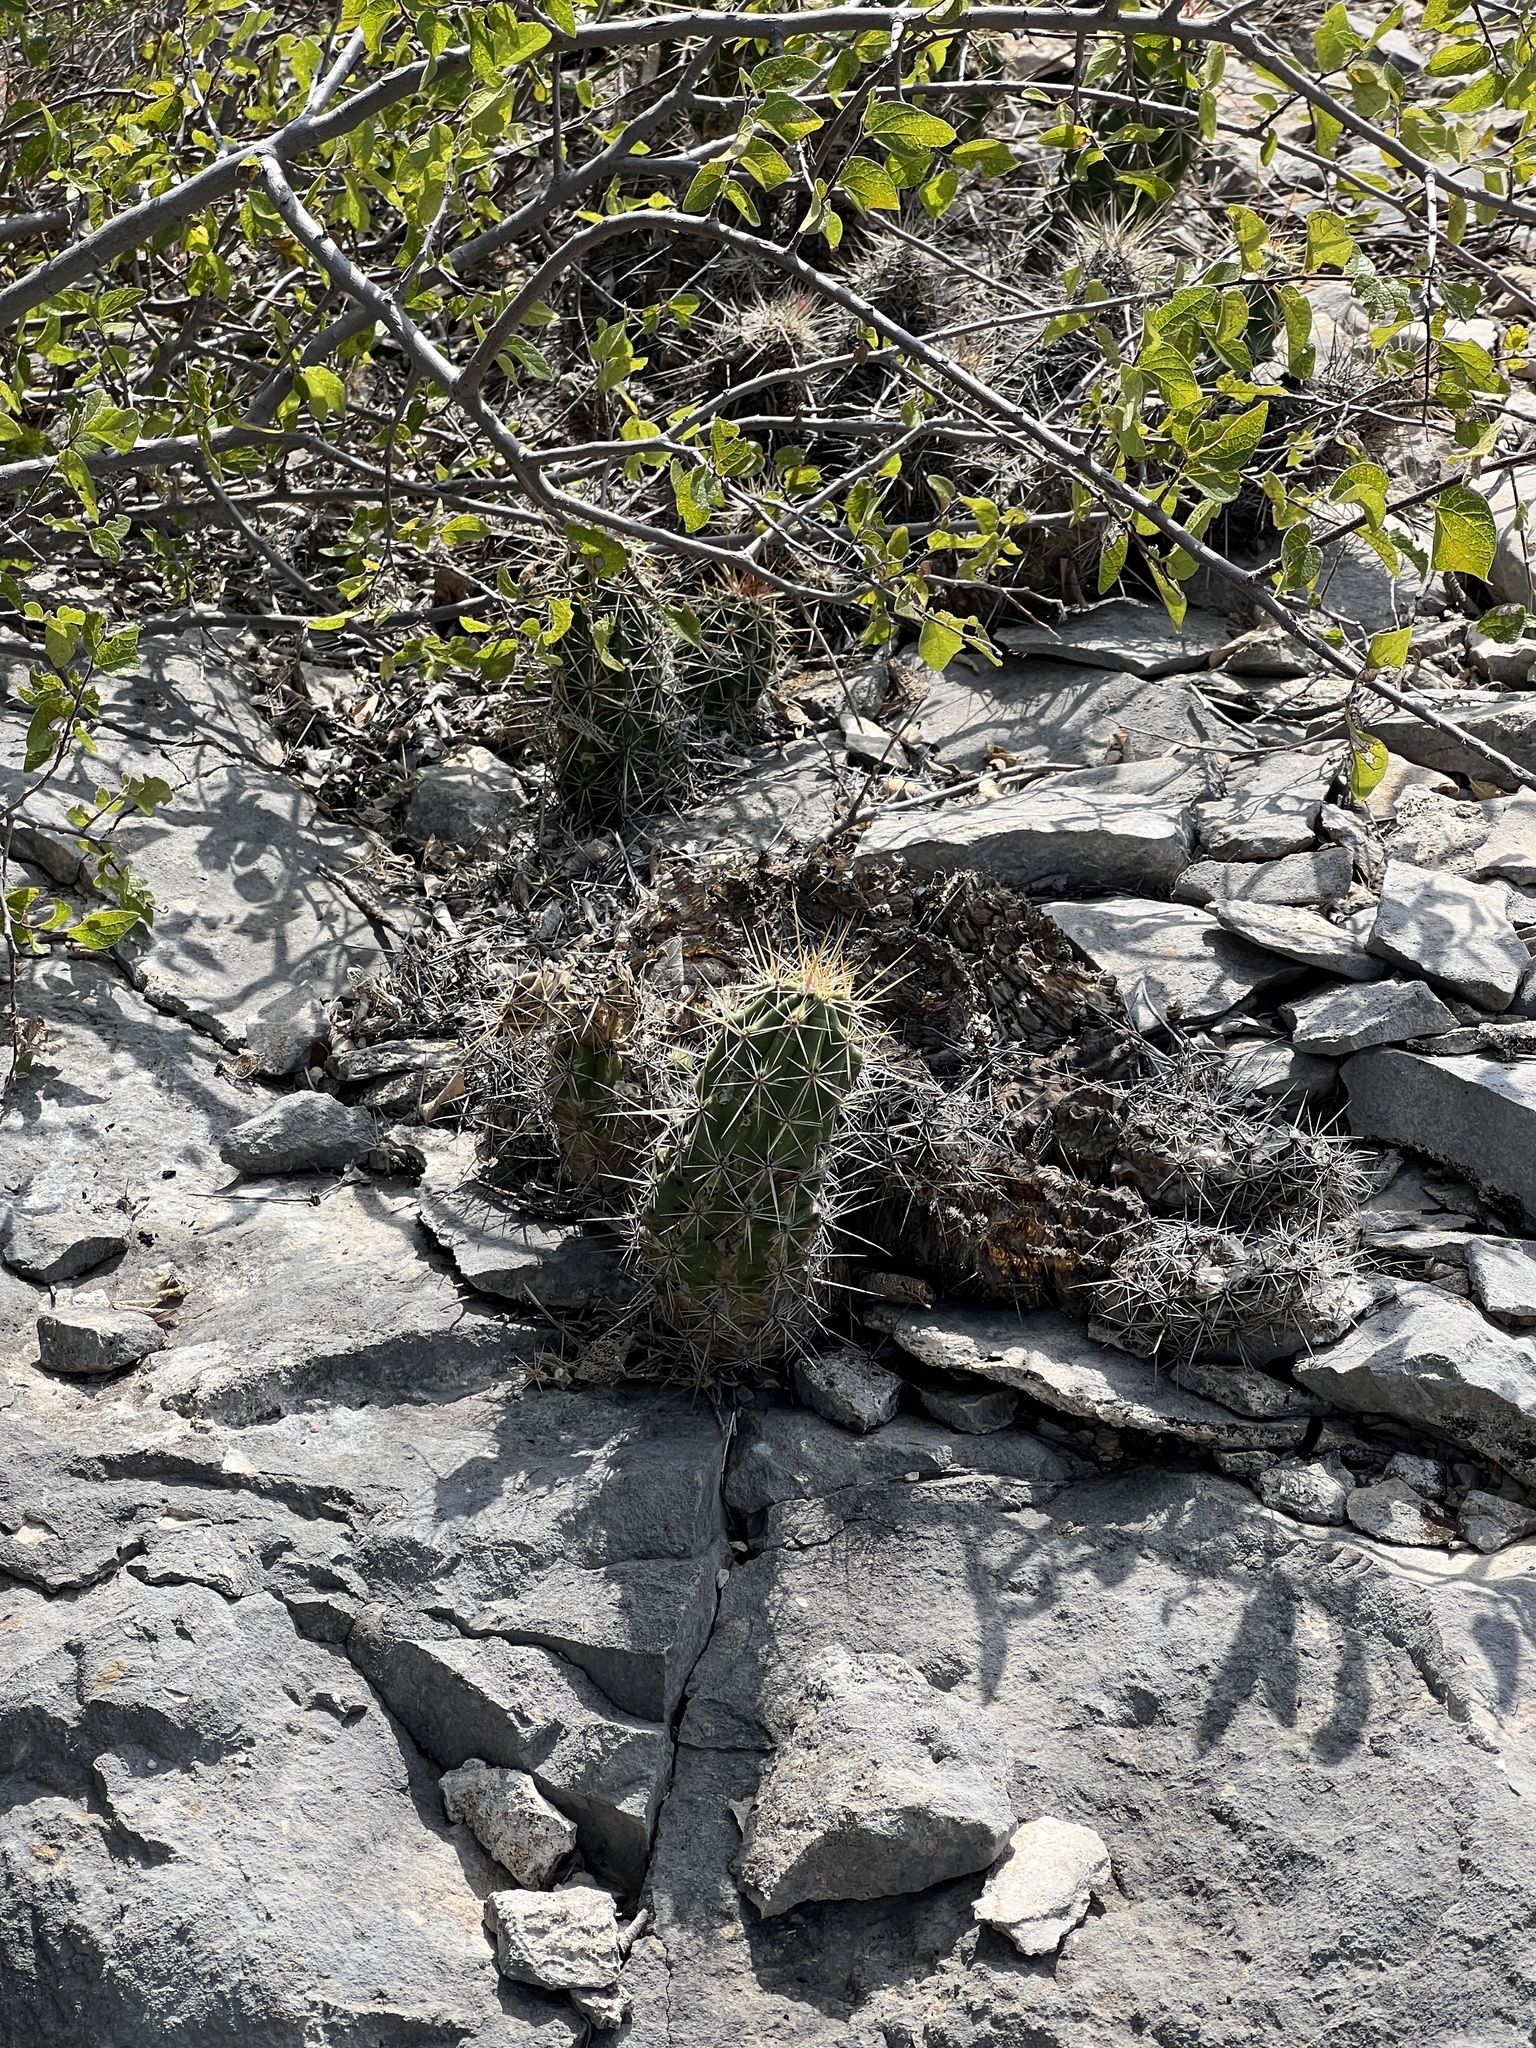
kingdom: Plantae
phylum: Tracheophyta
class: Magnoliopsida
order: Caryophyllales
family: Cactaceae
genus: Echinocereus
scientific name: Echinocereus enneacanthus
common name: Pitaya
